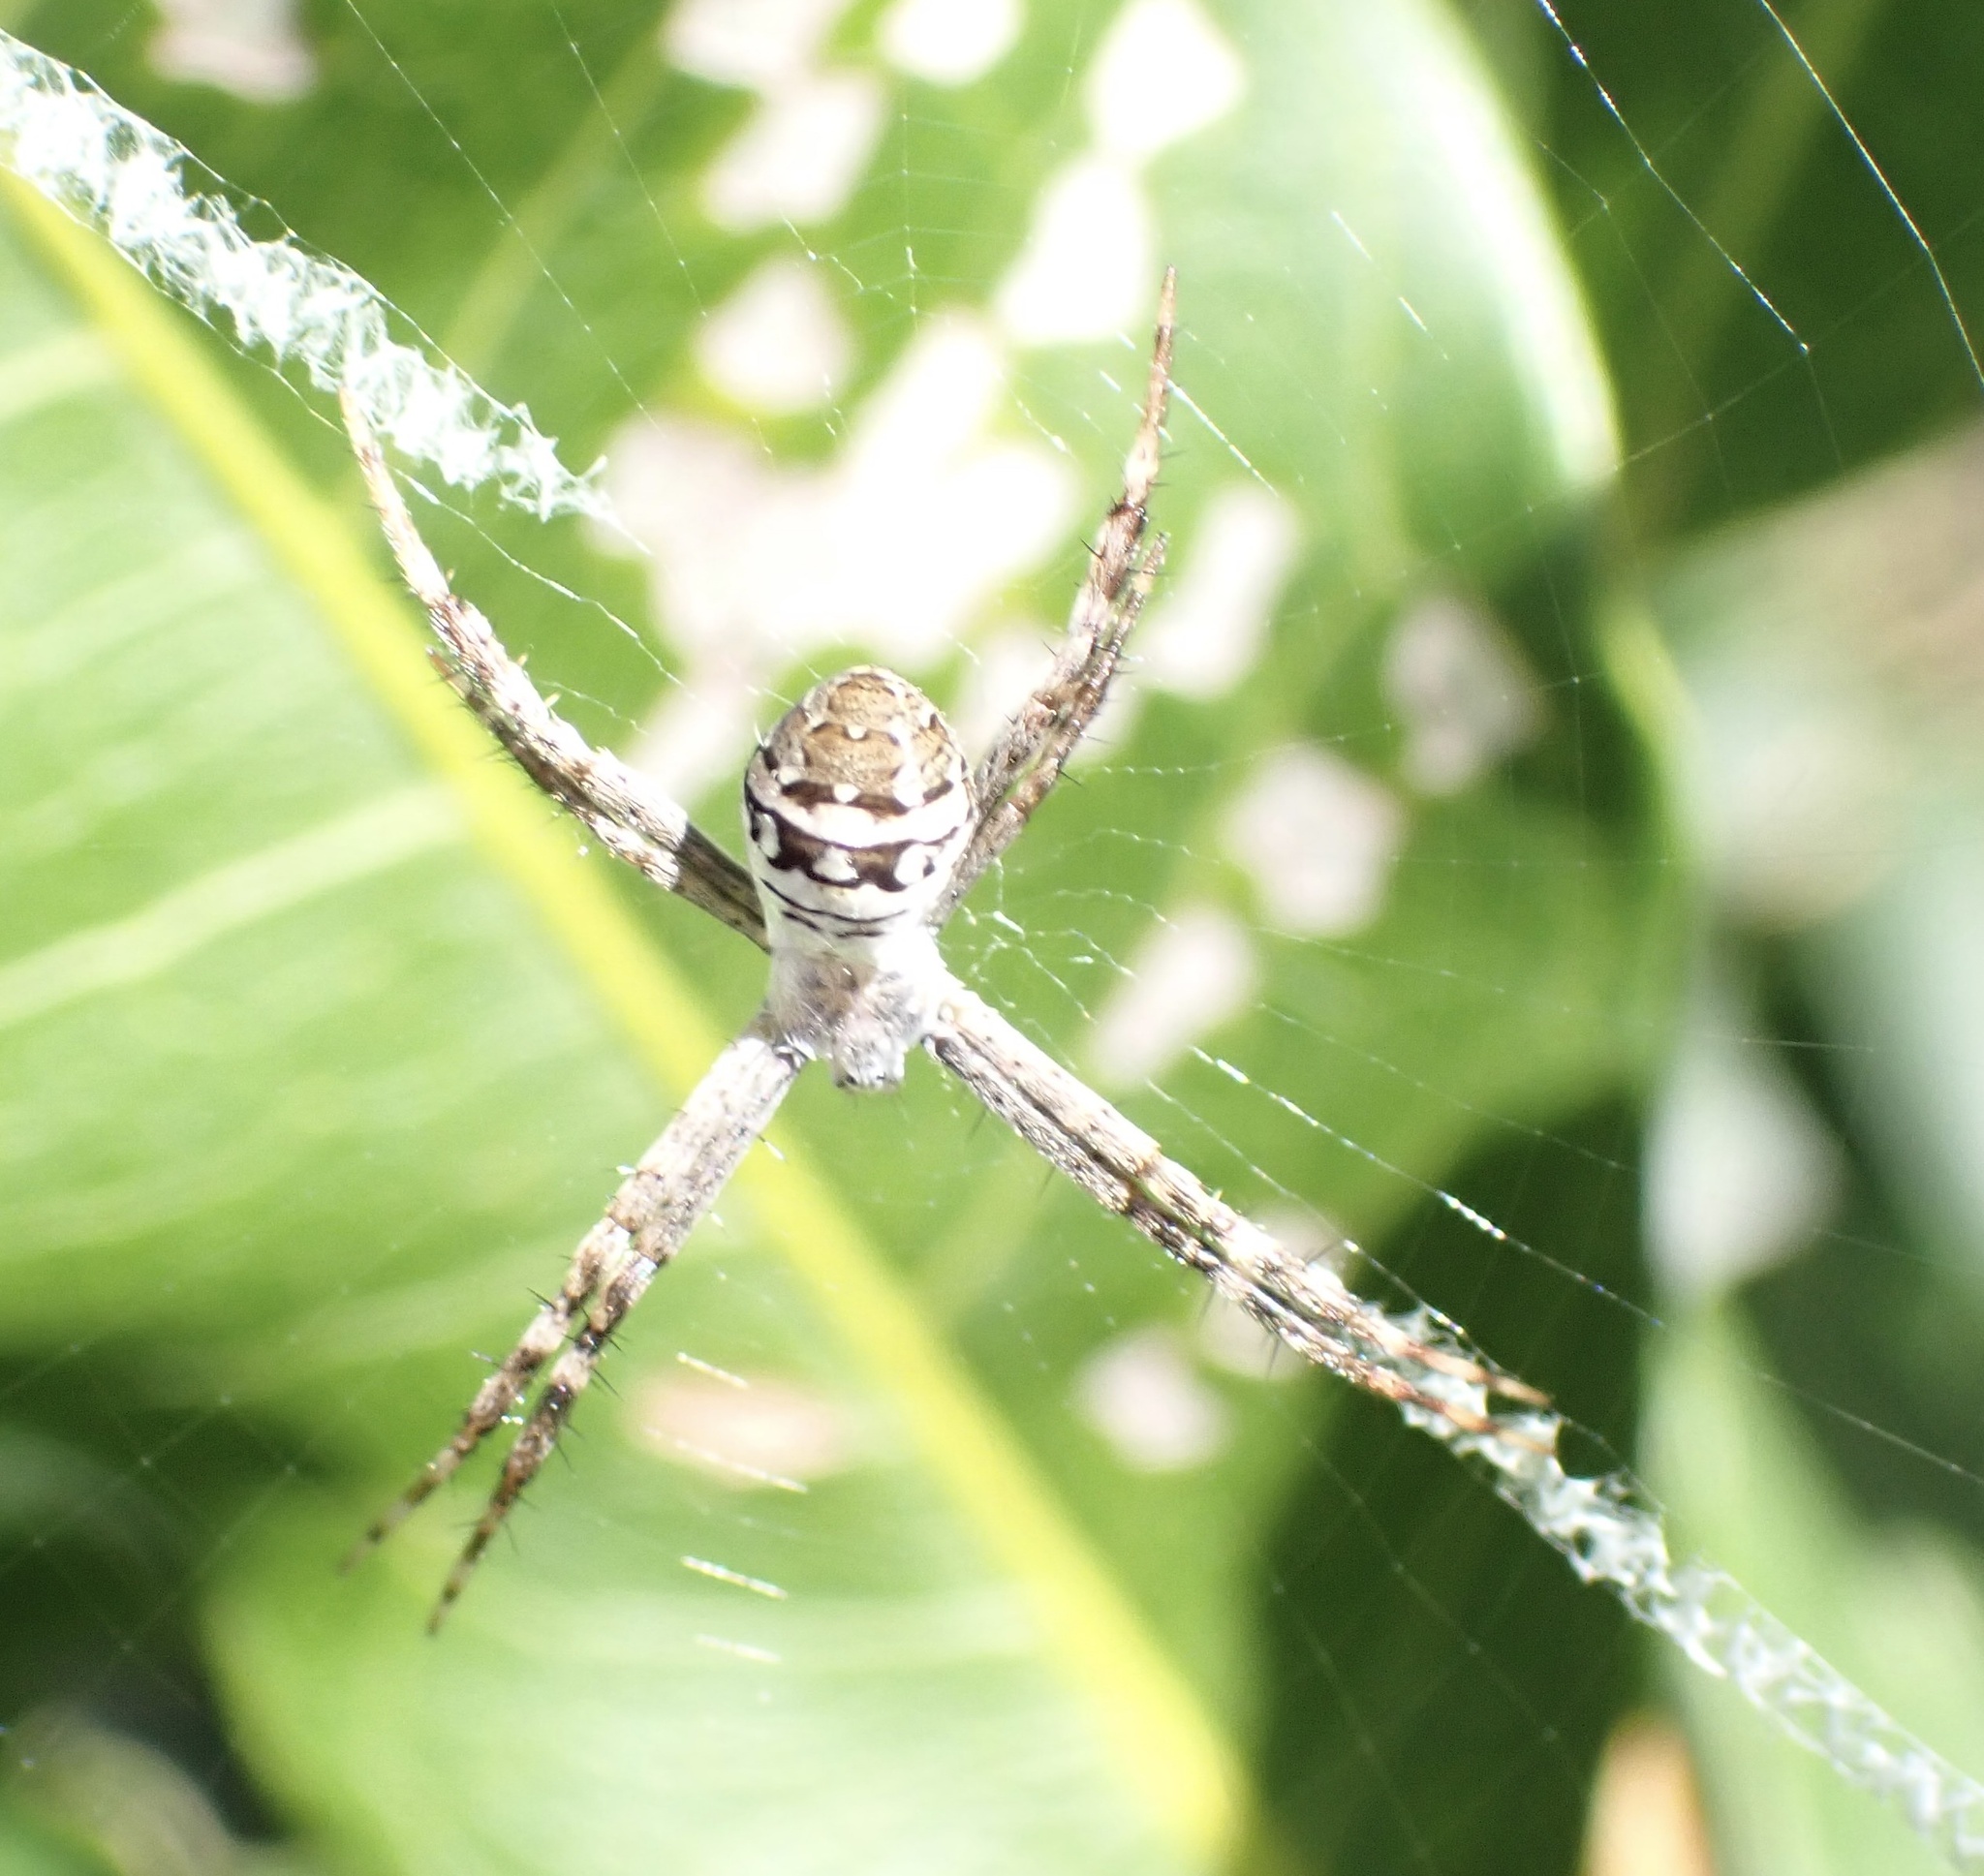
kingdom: Animalia
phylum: Arthropoda
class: Arachnida
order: Araneae
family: Araneidae
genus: Argiope
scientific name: Argiope keyserlingi
